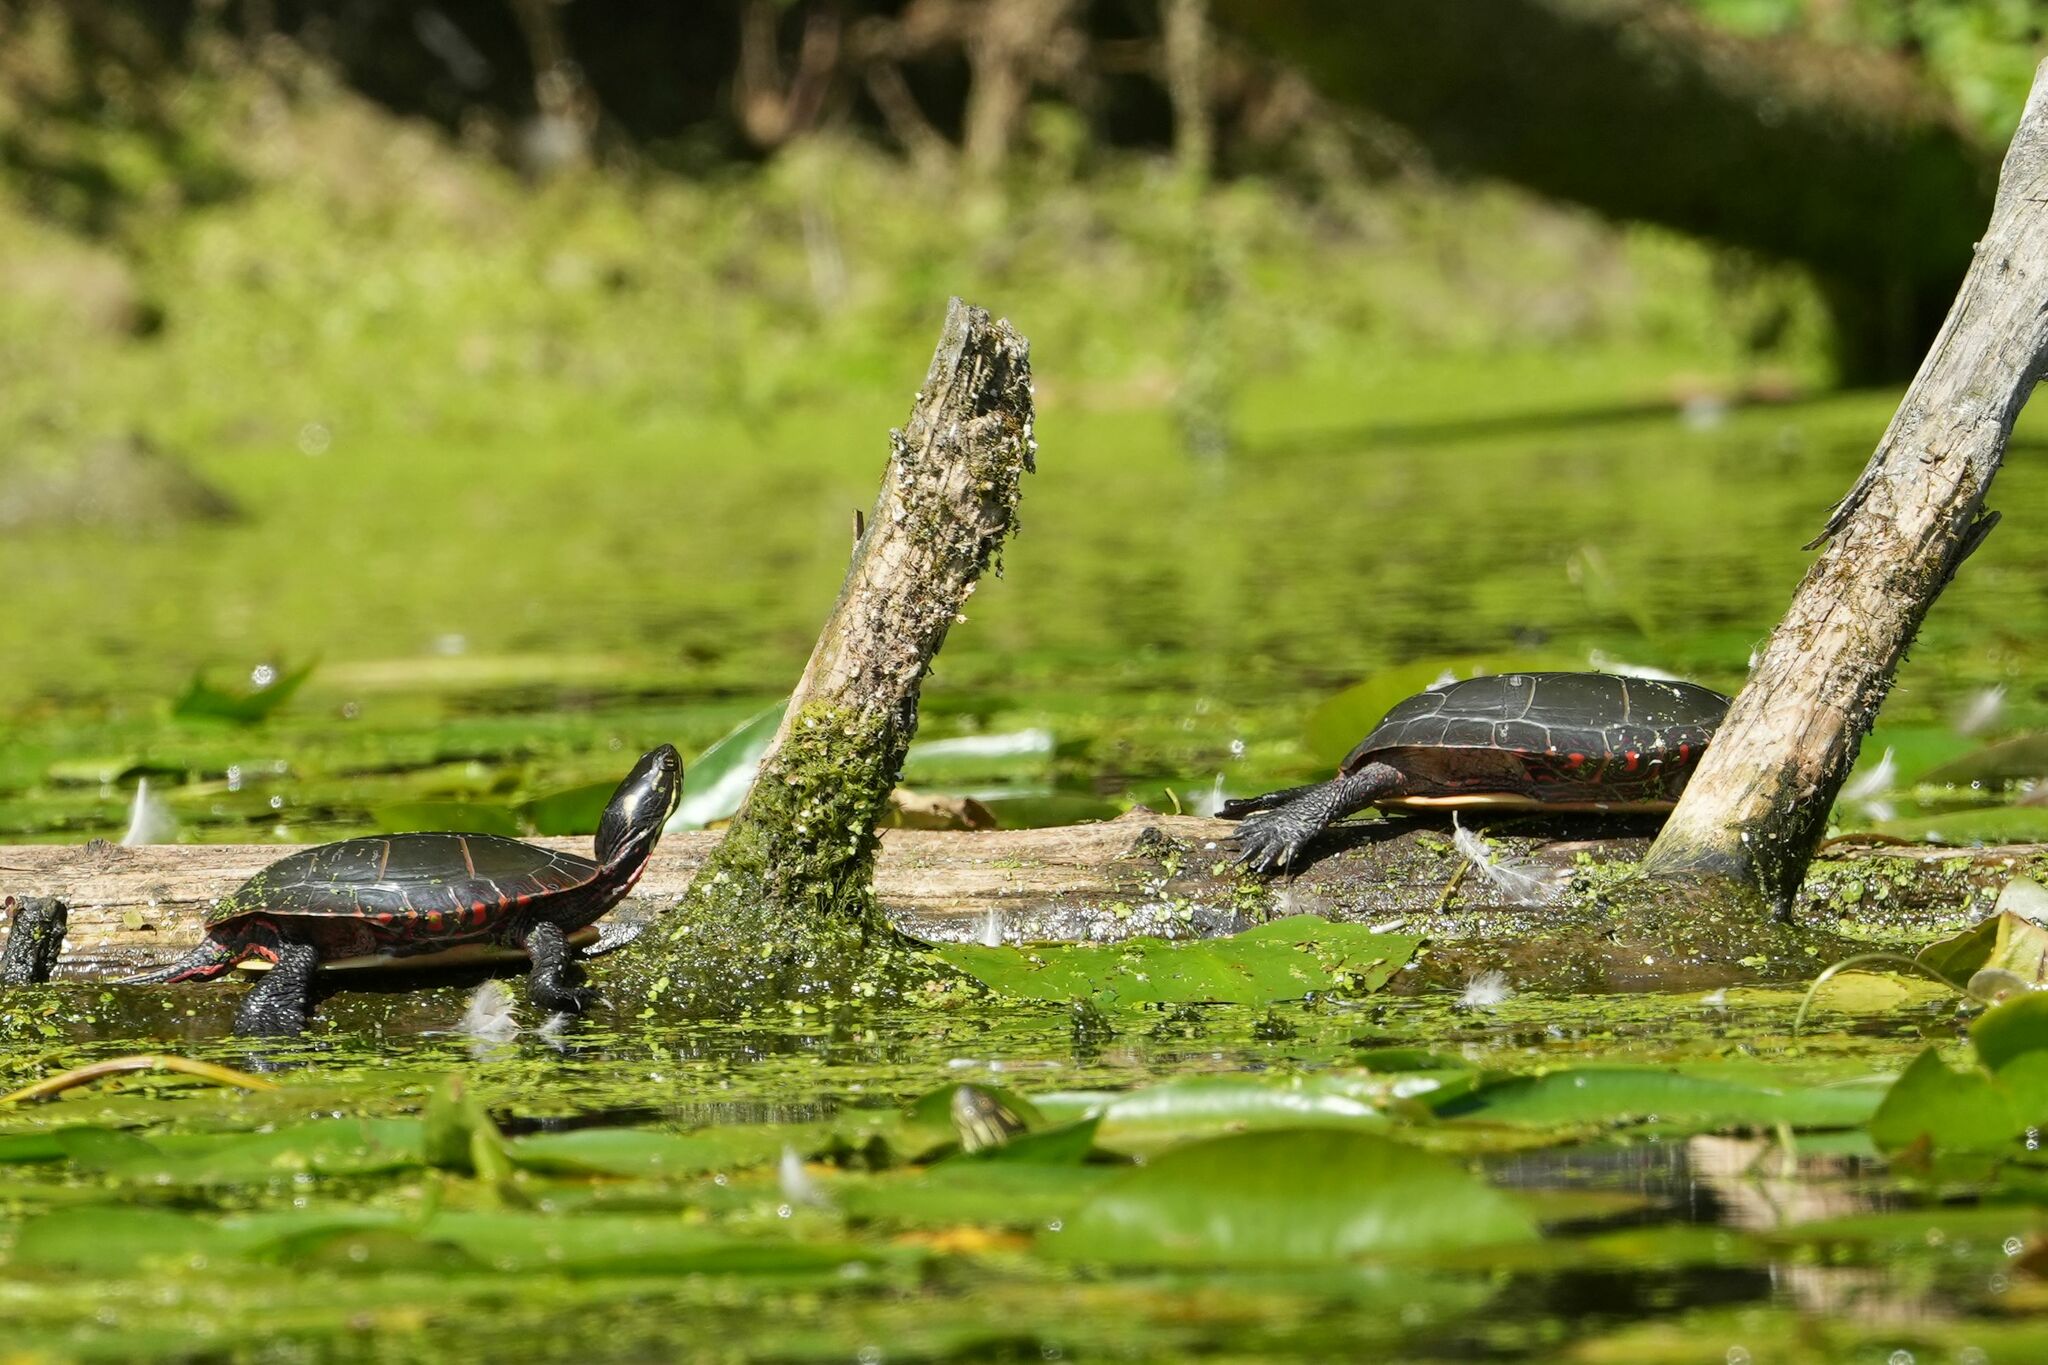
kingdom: Animalia
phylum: Chordata
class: Testudines
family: Emydidae
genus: Chrysemys
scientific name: Chrysemys picta
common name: Painted turtle
